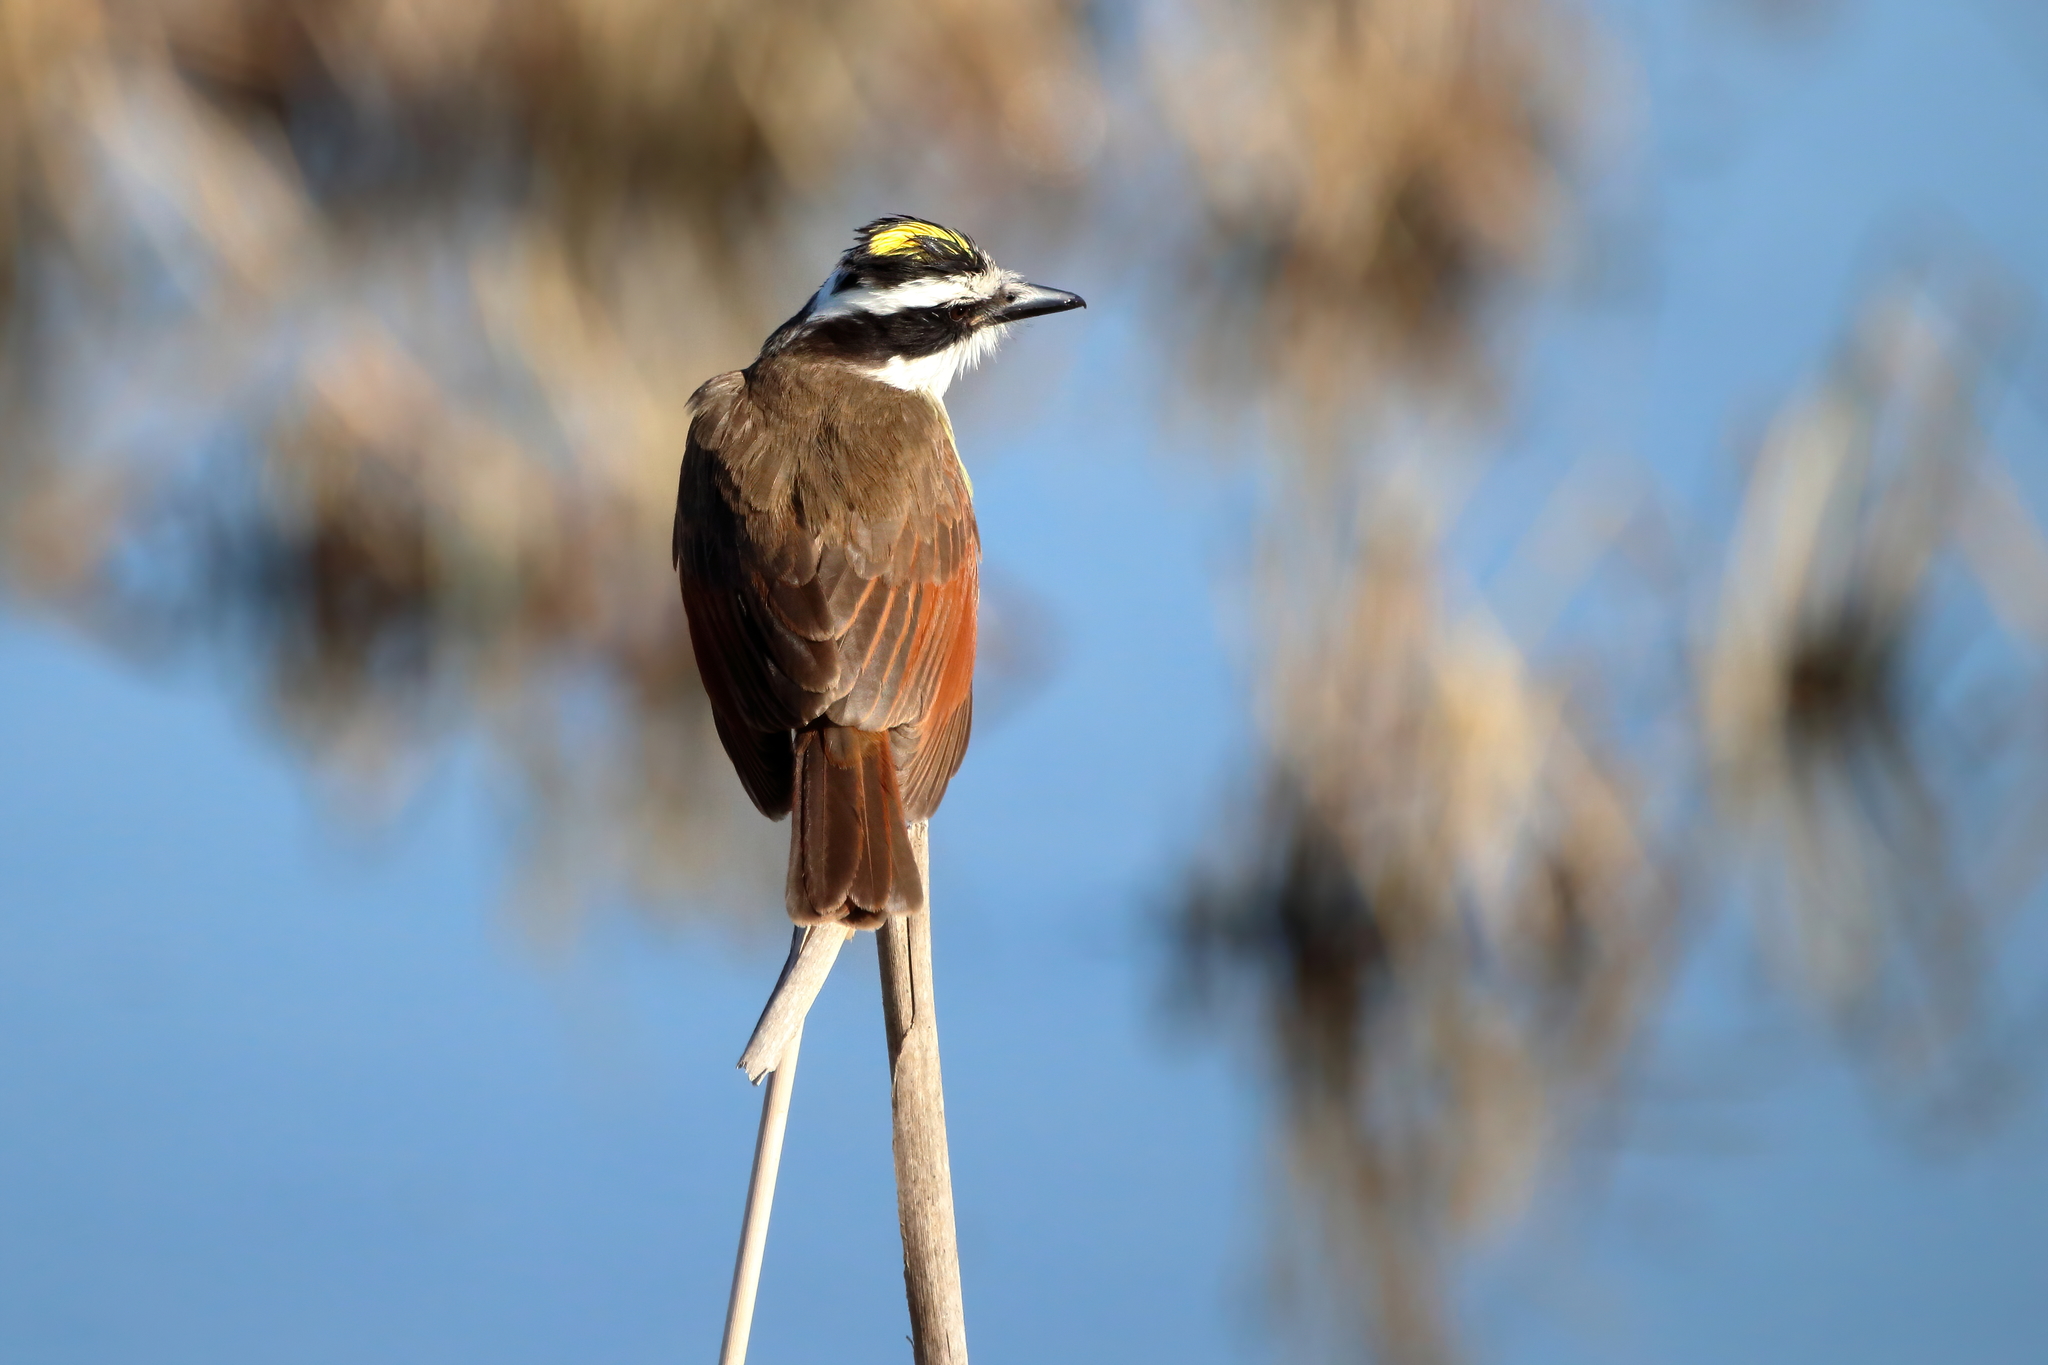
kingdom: Animalia
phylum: Chordata
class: Aves
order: Passeriformes
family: Tyrannidae
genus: Pitangus
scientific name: Pitangus sulphuratus
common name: Great kiskadee
